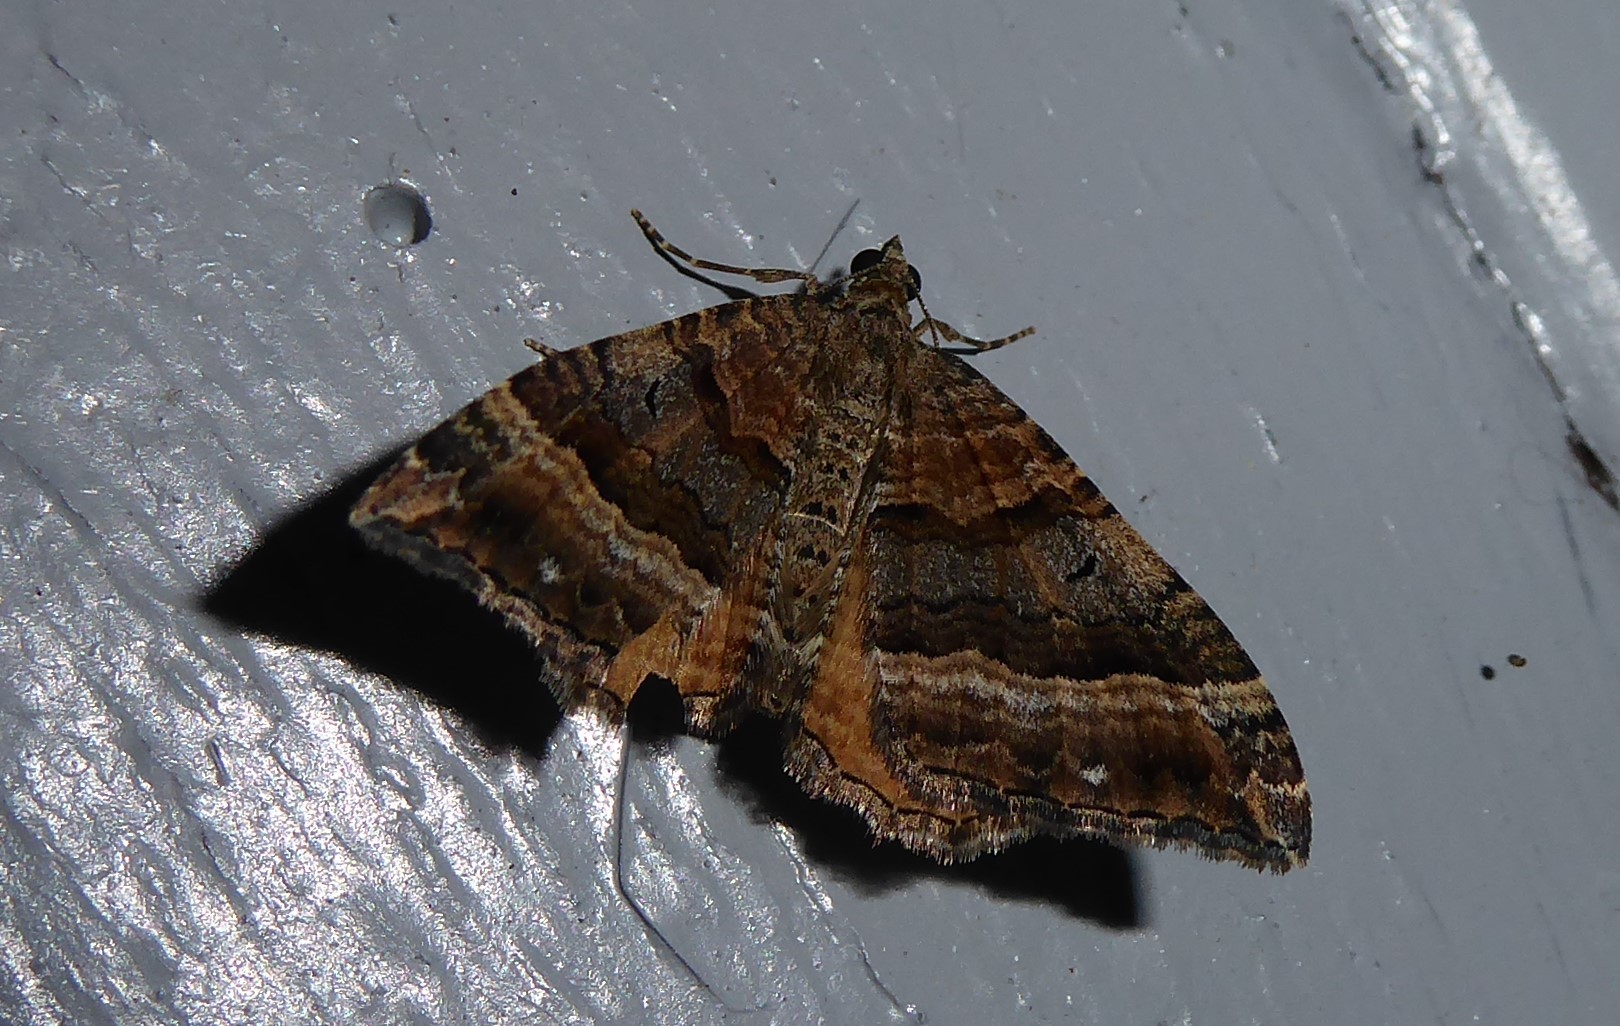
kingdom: Animalia
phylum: Arthropoda
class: Insecta
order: Lepidoptera
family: Geometridae
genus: Hydriomena
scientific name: Hydriomena deltoidata
